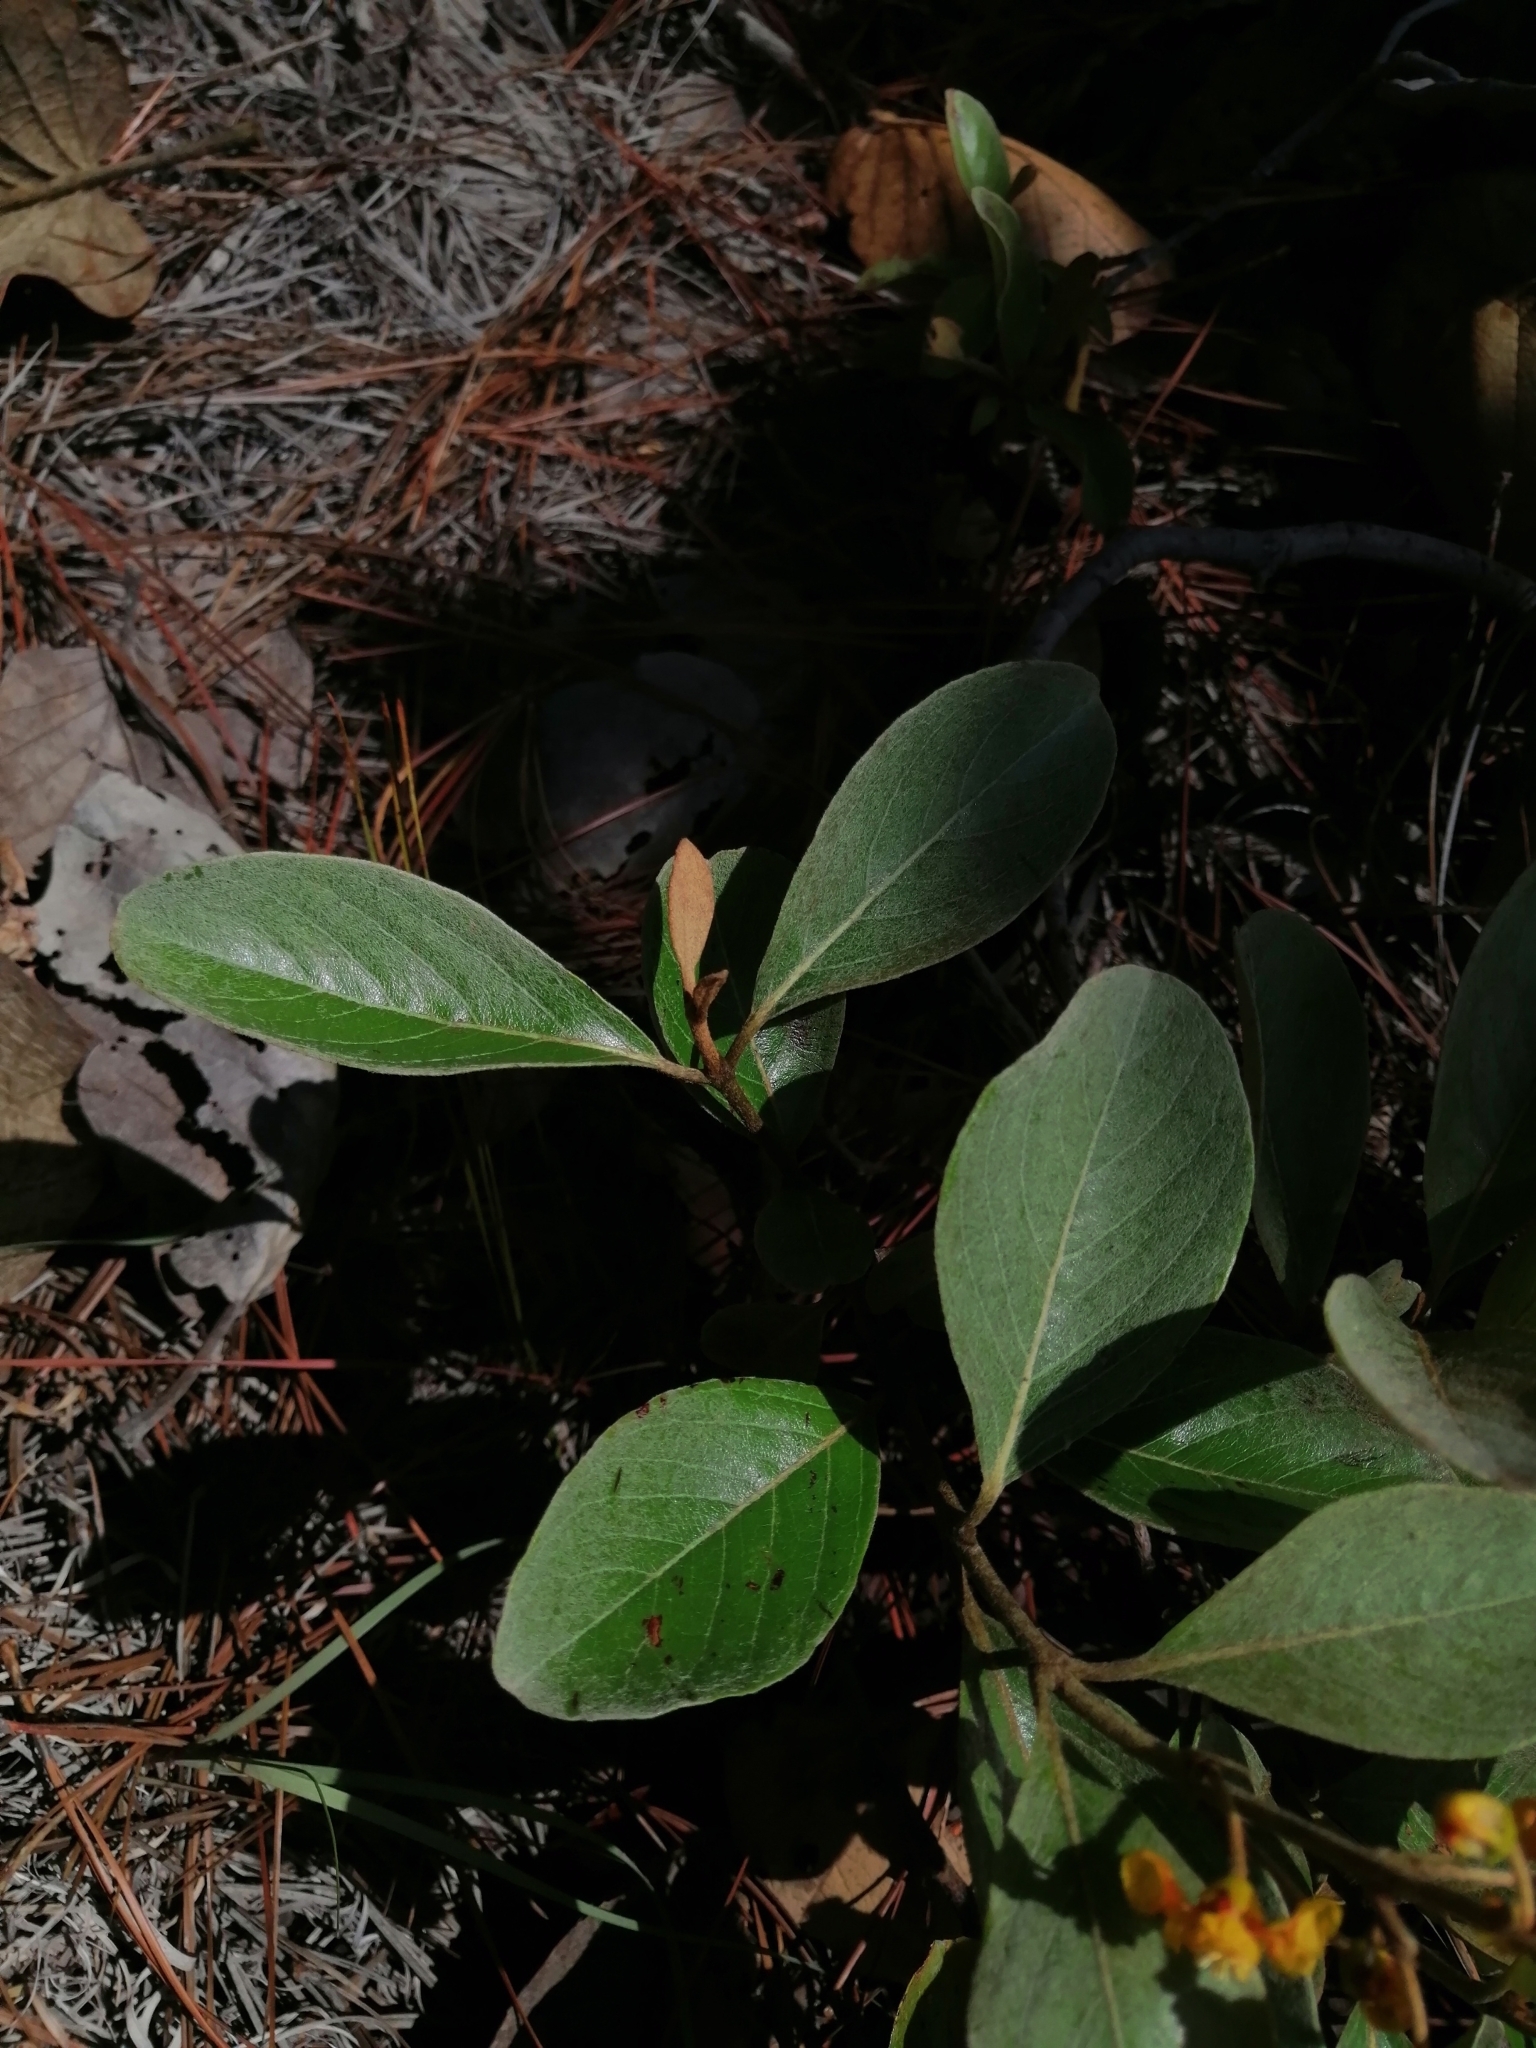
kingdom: Plantae
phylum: Tracheophyta
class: Magnoliopsida
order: Malpighiales
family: Malpighiaceae
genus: Byrsonima
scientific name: Byrsonima crassifolia
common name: Golden spoon
